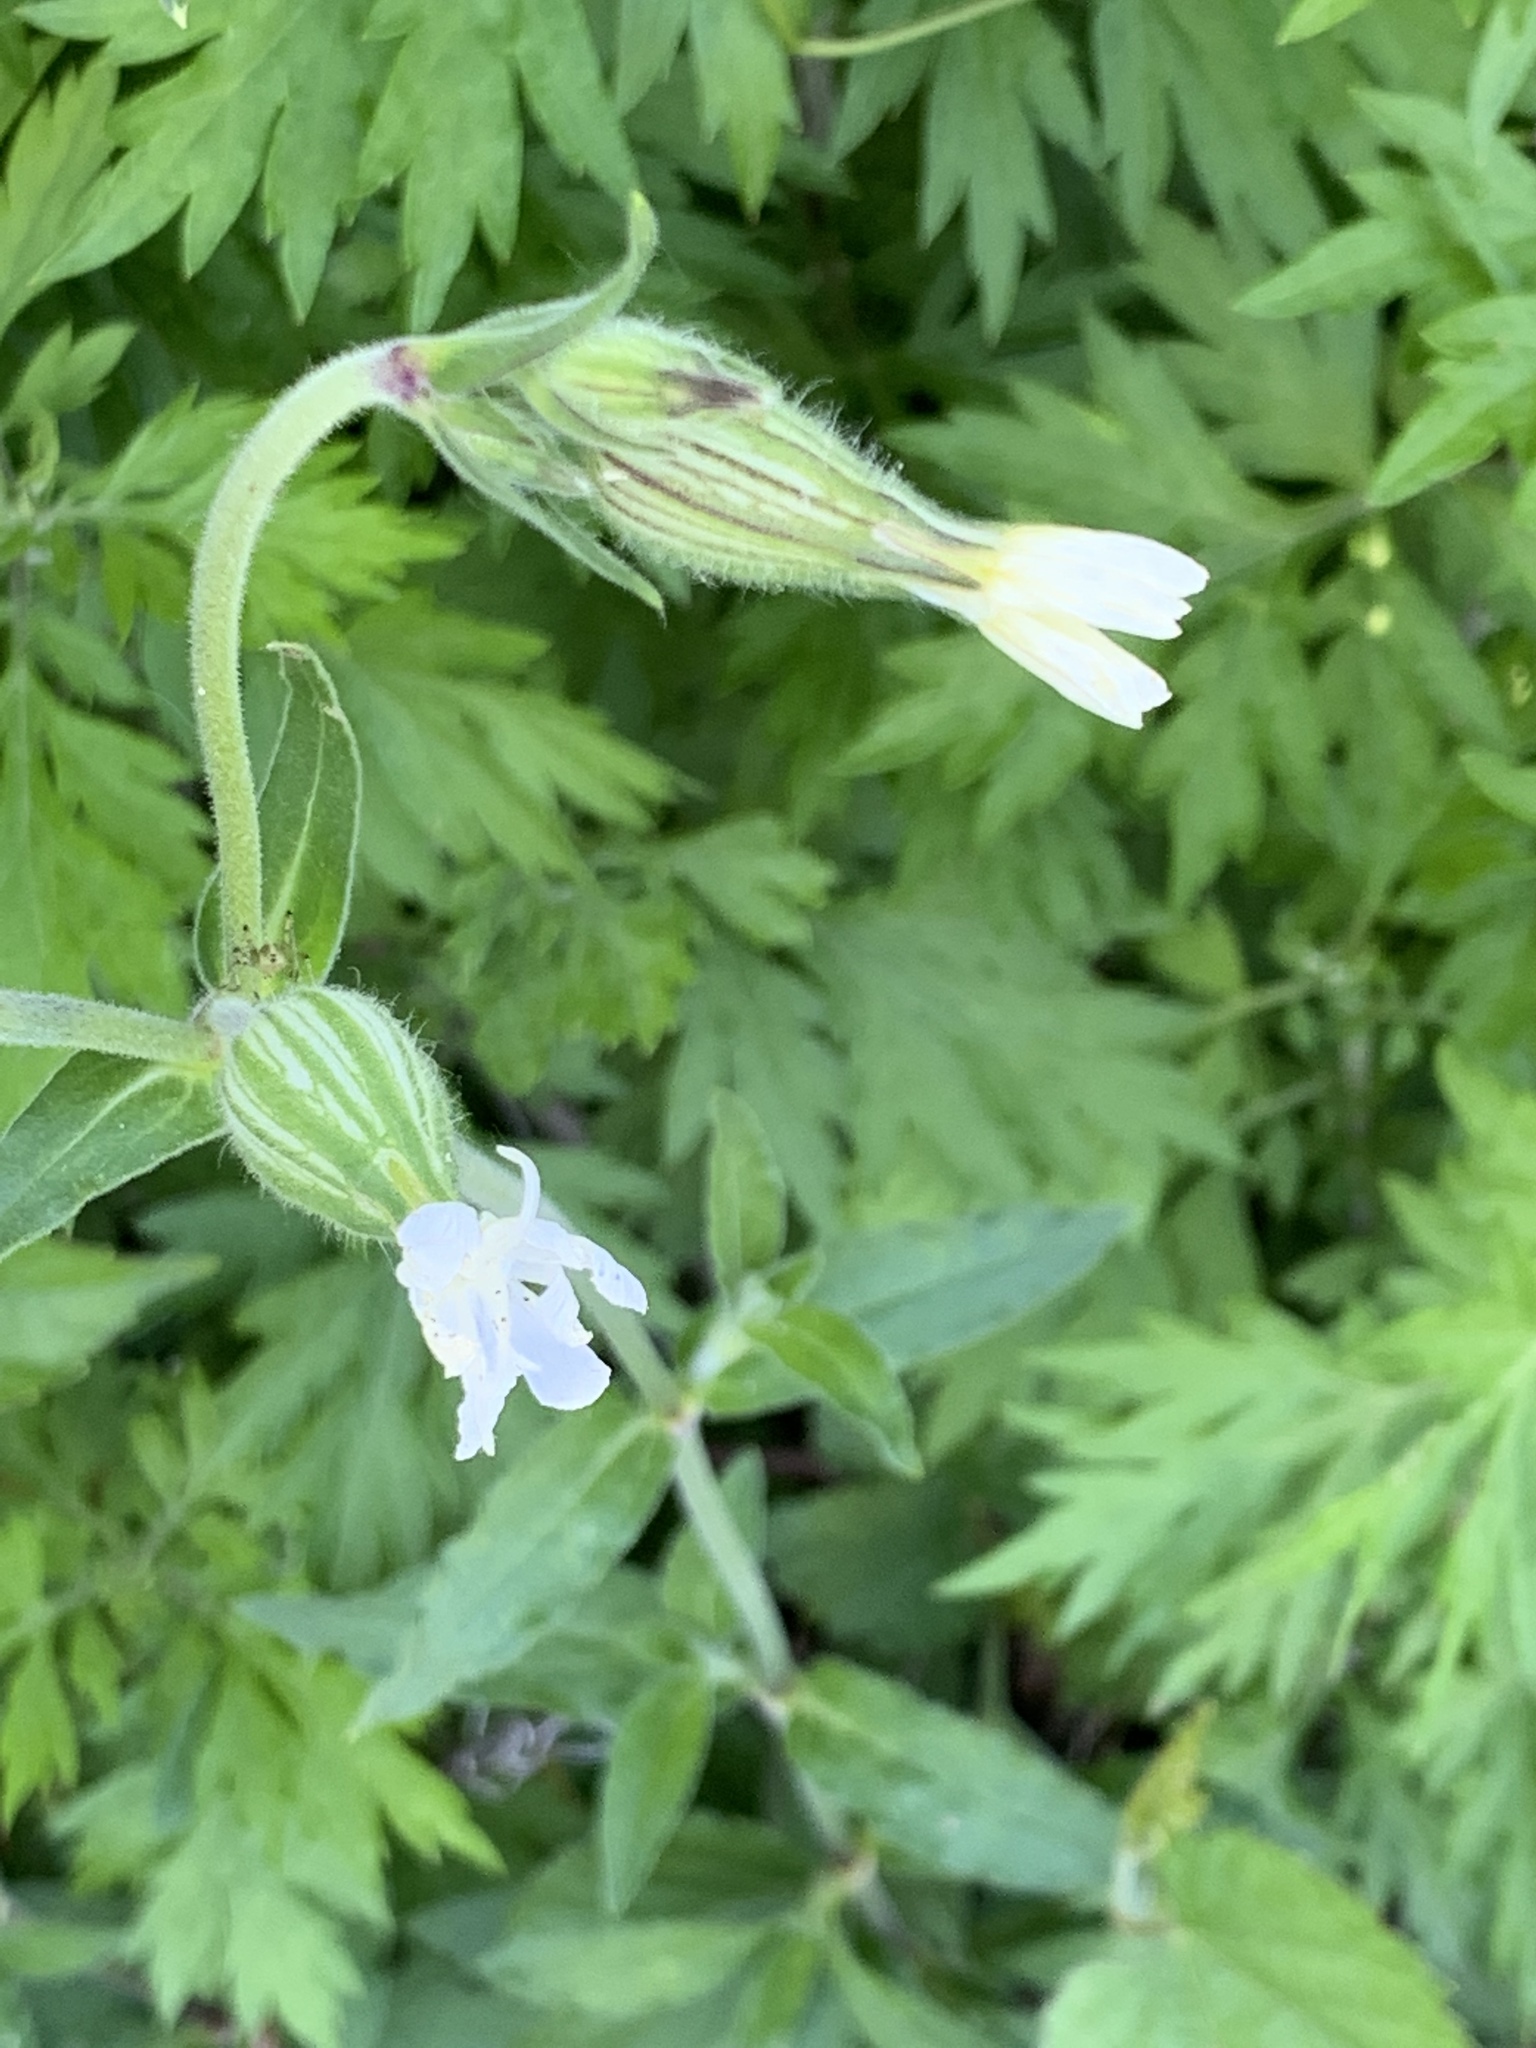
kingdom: Plantae
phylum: Tracheophyta
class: Magnoliopsida
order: Caryophyllales
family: Caryophyllaceae
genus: Silene
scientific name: Silene latifolia
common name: White campion
